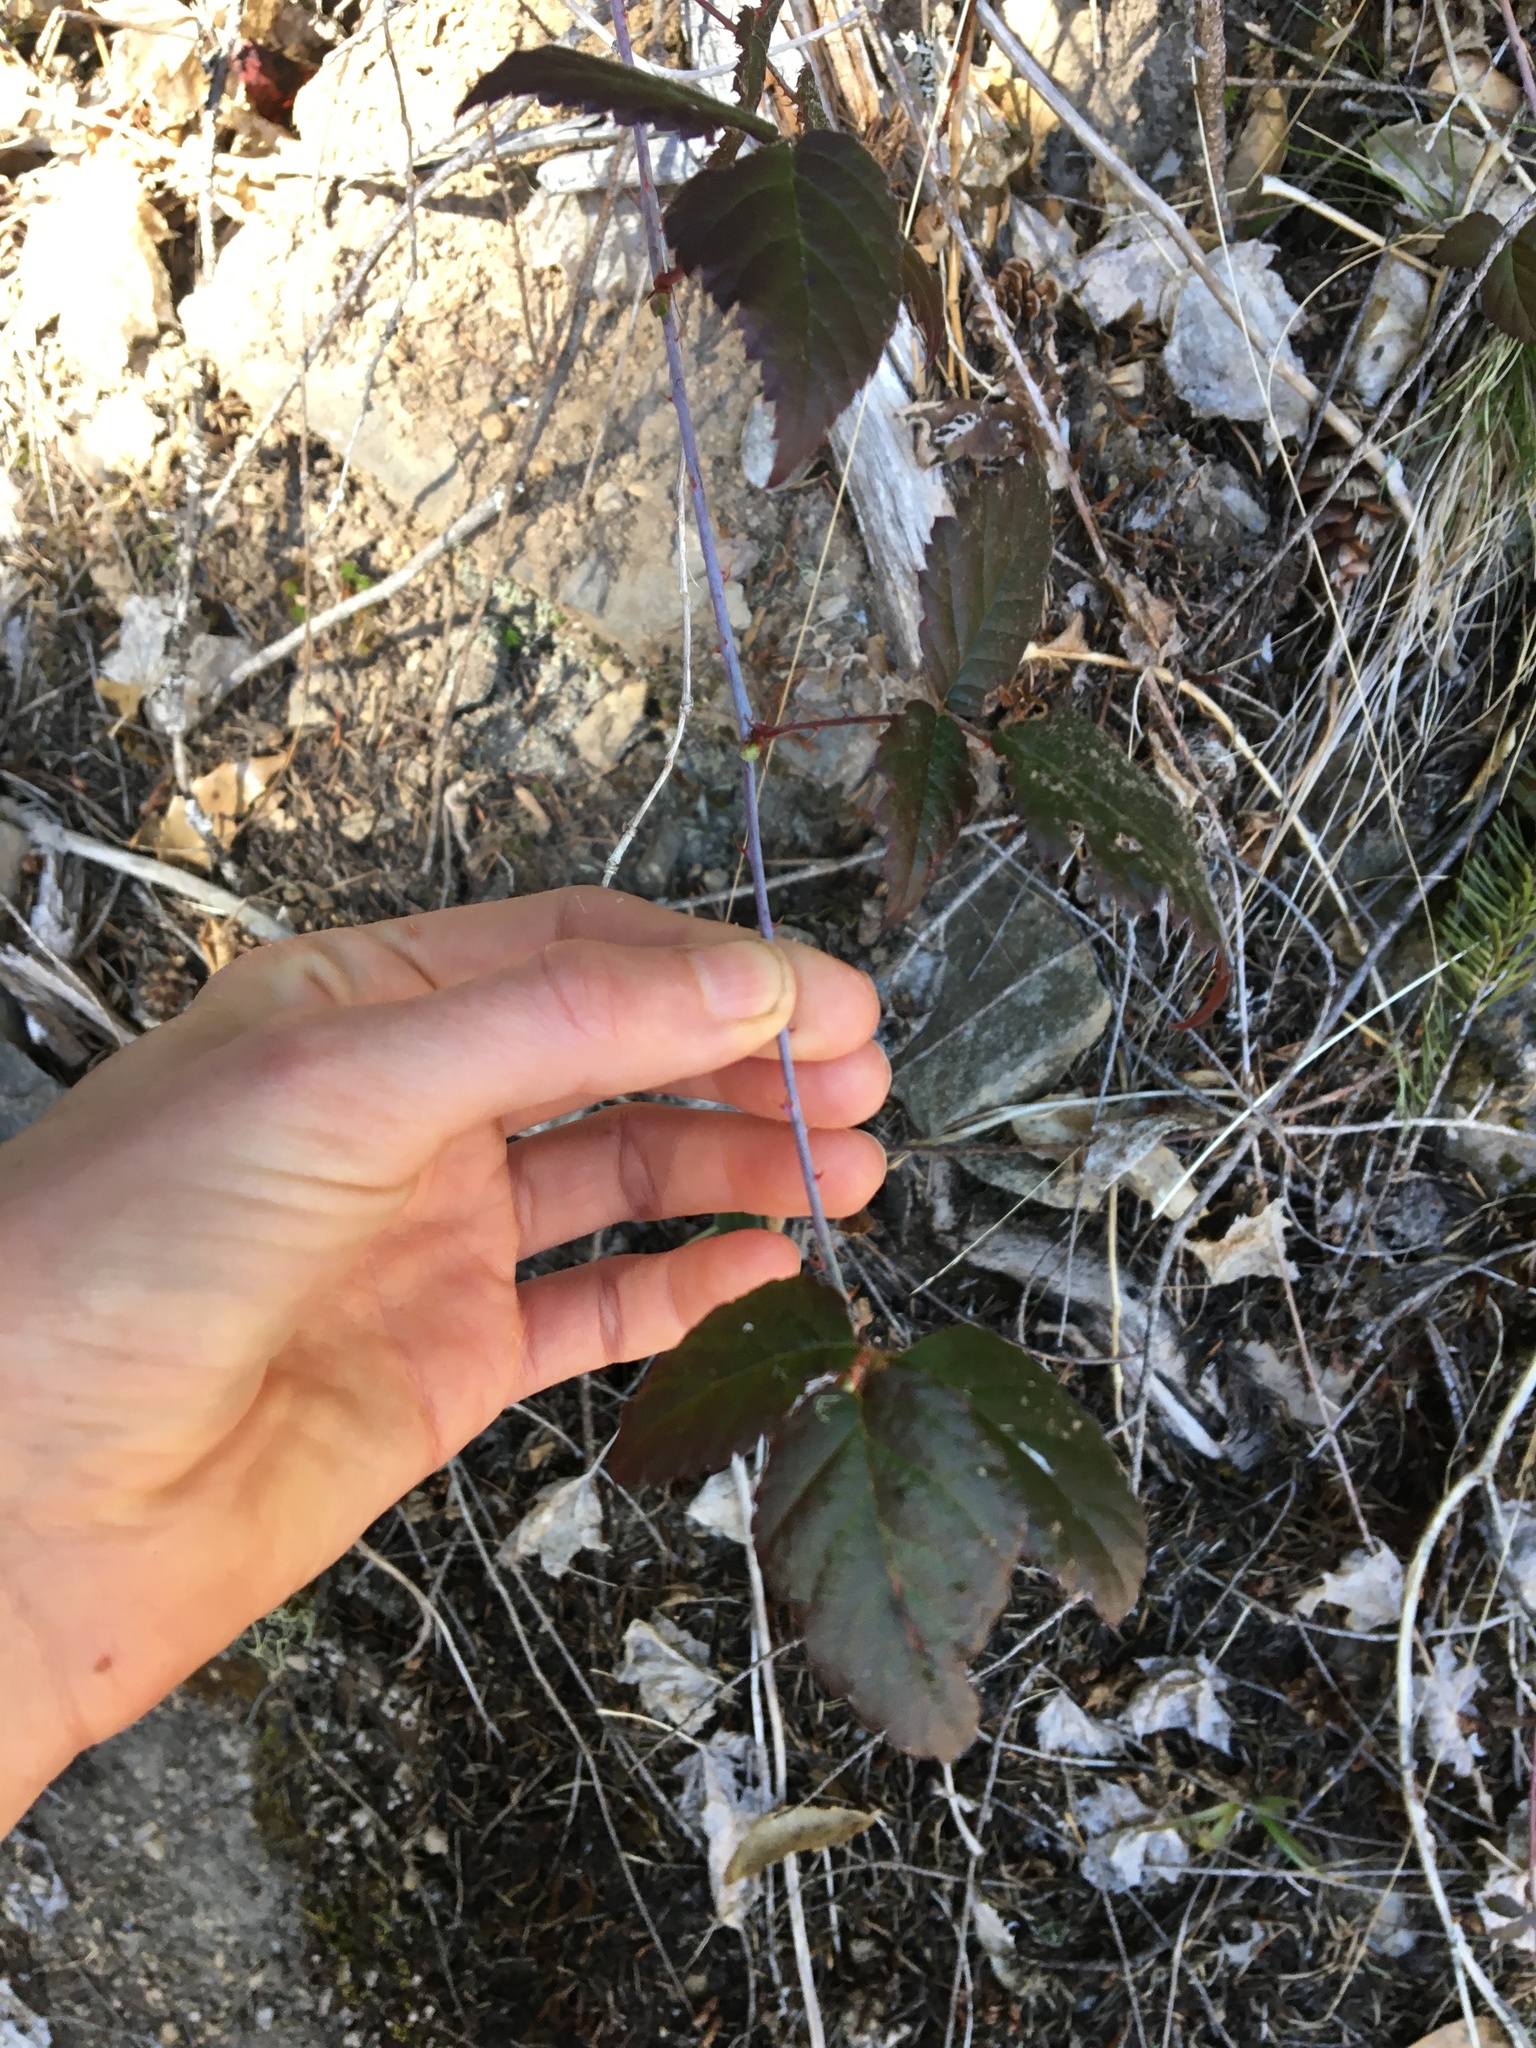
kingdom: Plantae
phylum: Tracheophyta
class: Magnoliopsida
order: Rosales
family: Rosaceae
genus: Rubus
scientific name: Rubus ursinus
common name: Pacific blackberry
